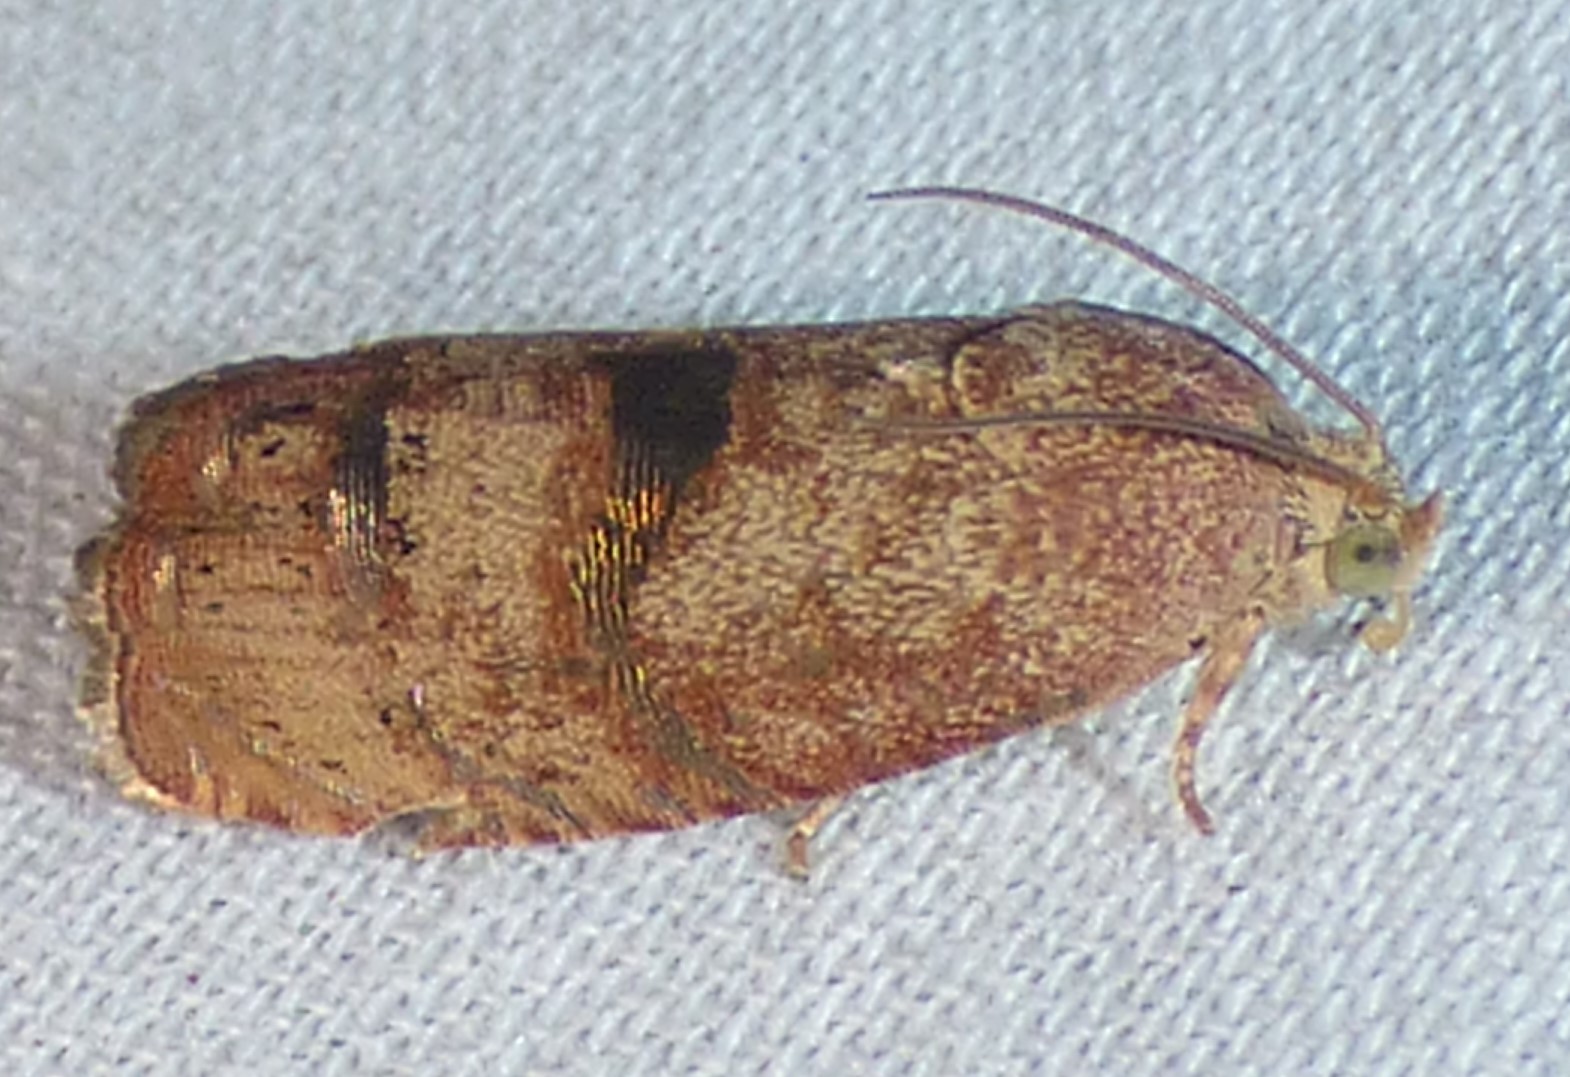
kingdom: Animalia
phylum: Arthropoda
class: Insecta
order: Lepidoptera
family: Tortricidae
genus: Cydia
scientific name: Cydia latiferreana
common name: Filbertworm moth
